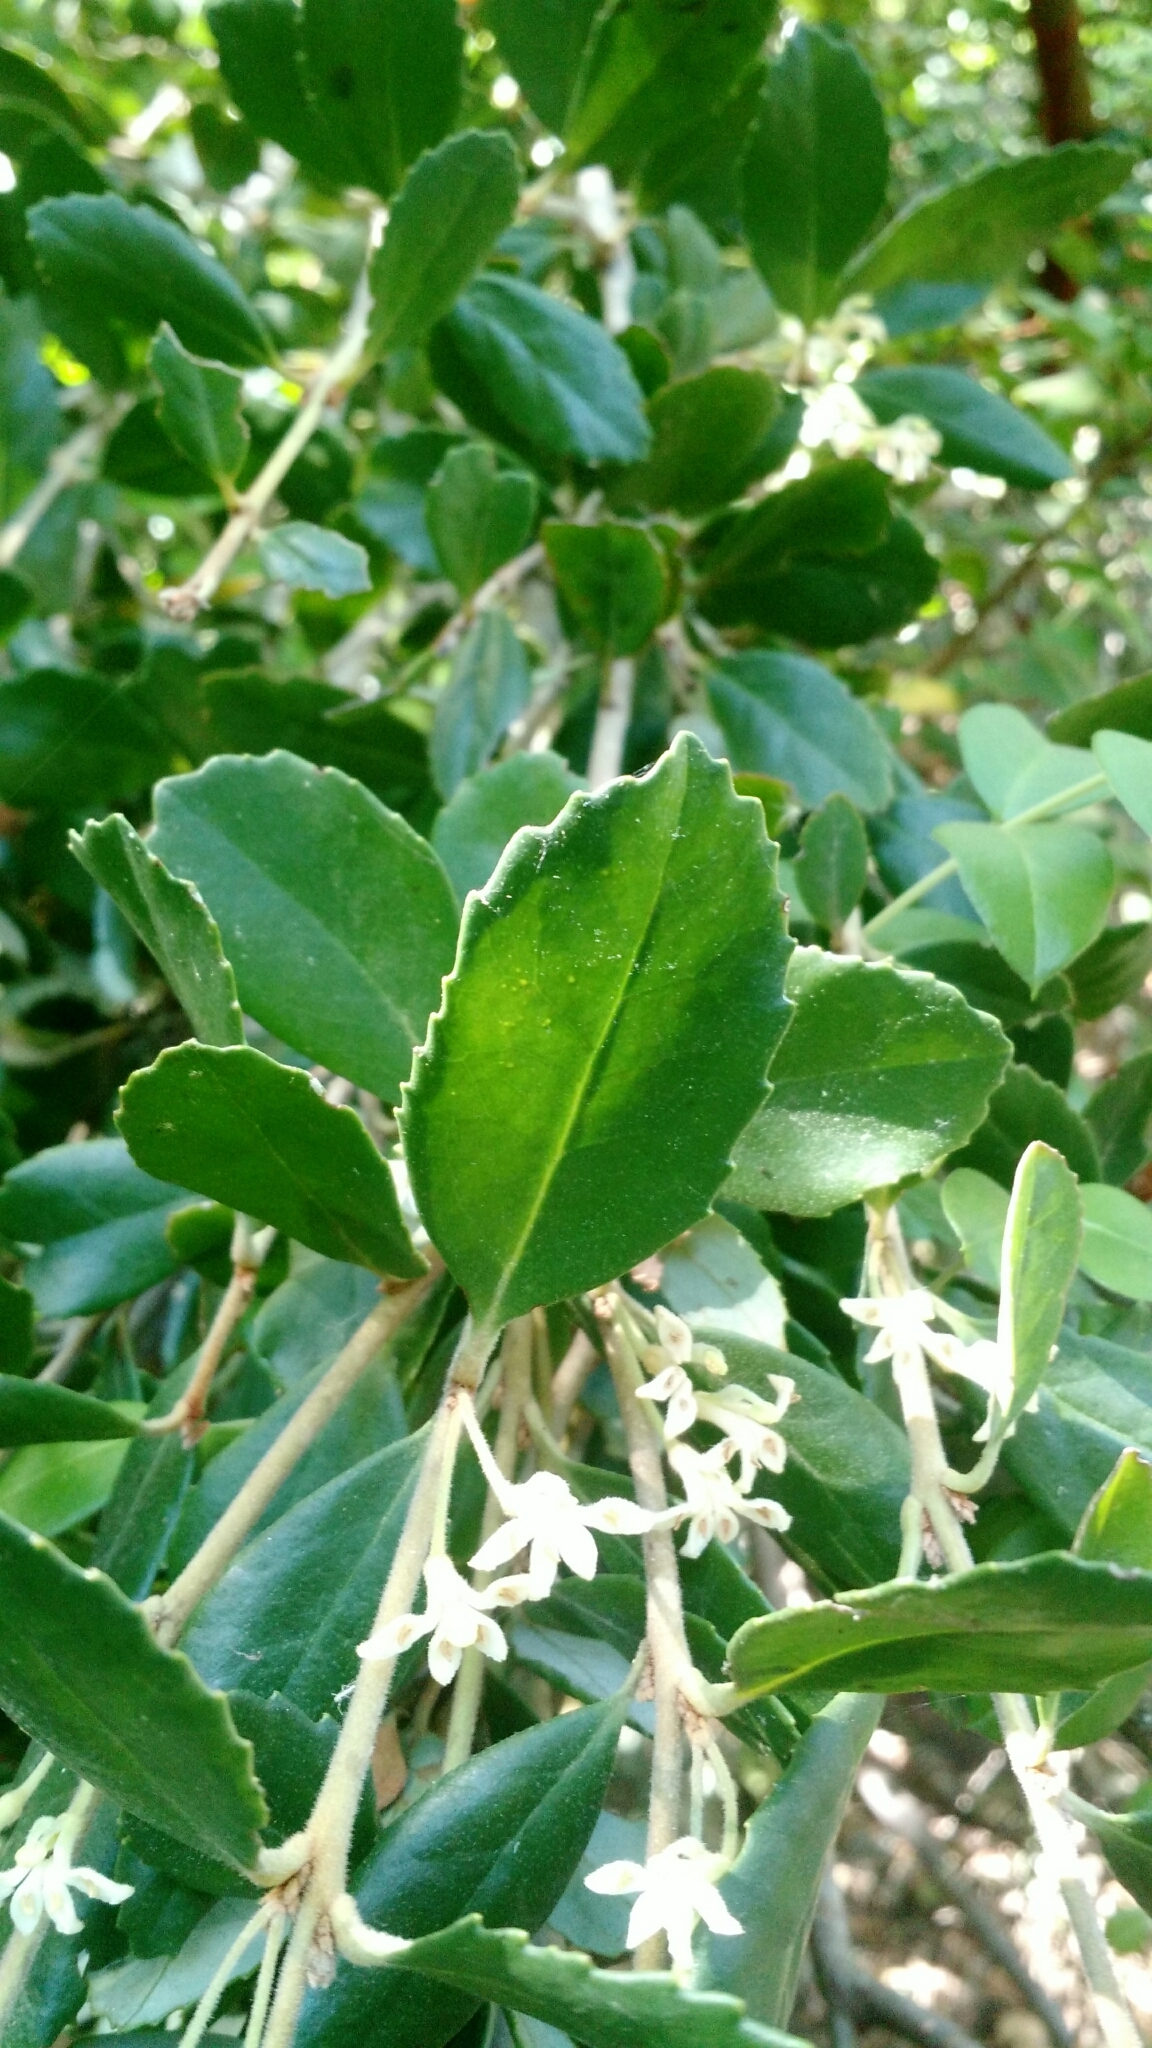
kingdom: Plantae
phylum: Tracheophyta
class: Magnoliopsida
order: Proteales
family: Proteaceae
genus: Lomatia
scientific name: Lomatia dentata
